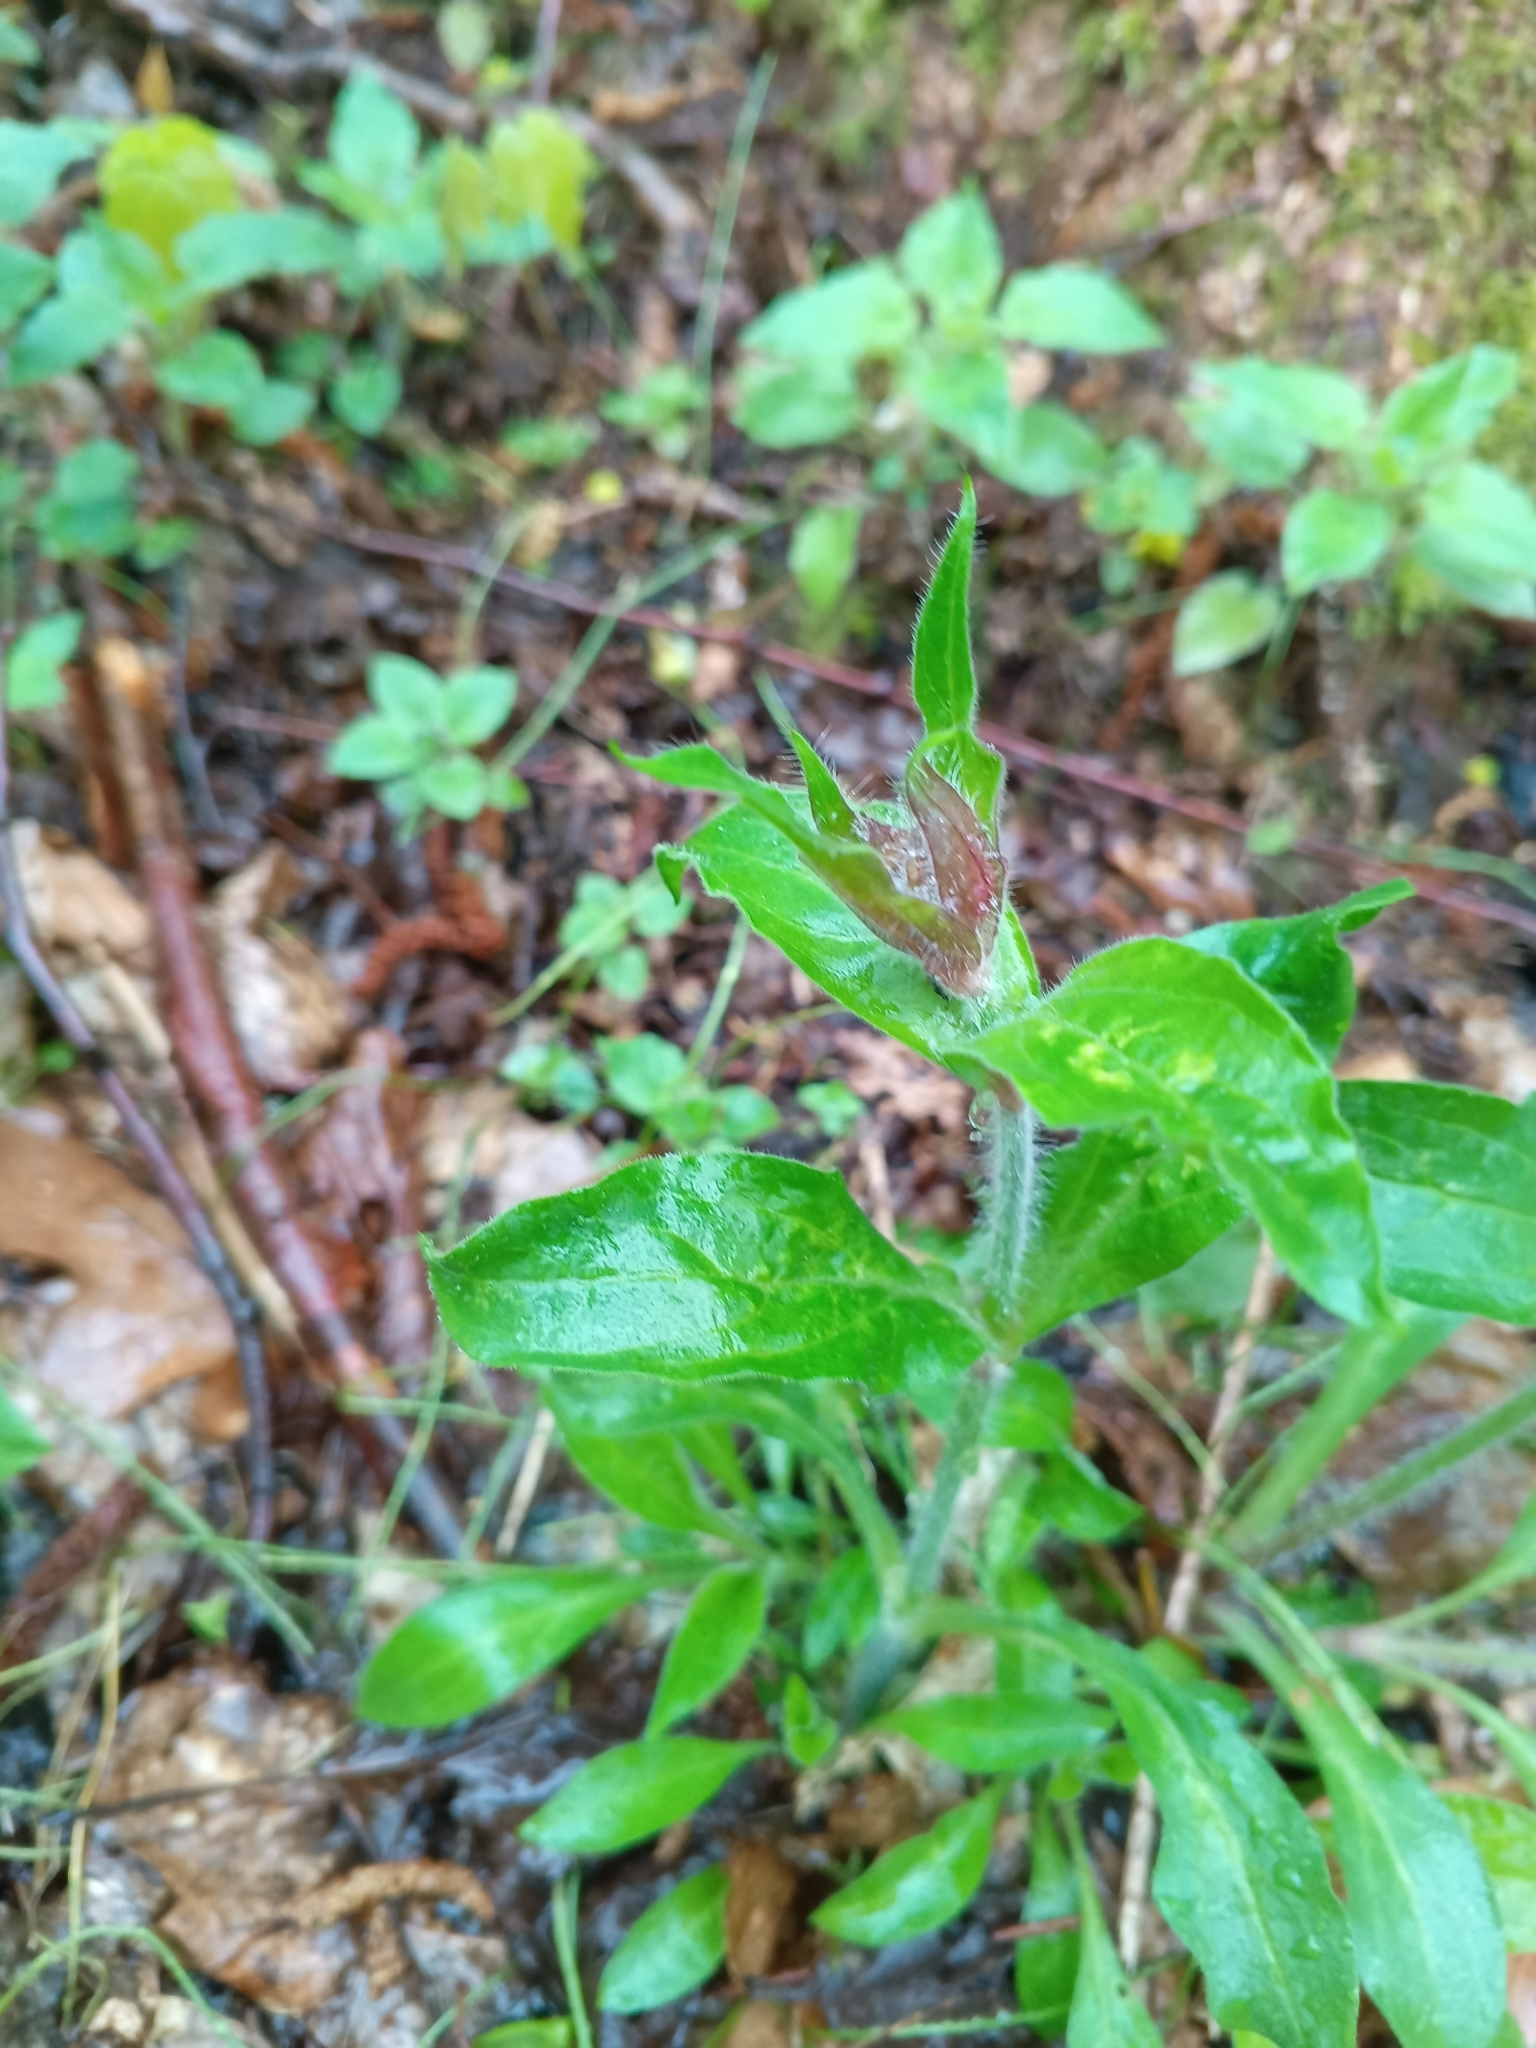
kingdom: Plantae
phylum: Tracheophyta
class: Magnoliopsida
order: Caryophyllales
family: Caryophyllaceae
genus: Silene
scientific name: Silene dioica
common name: Red campion
